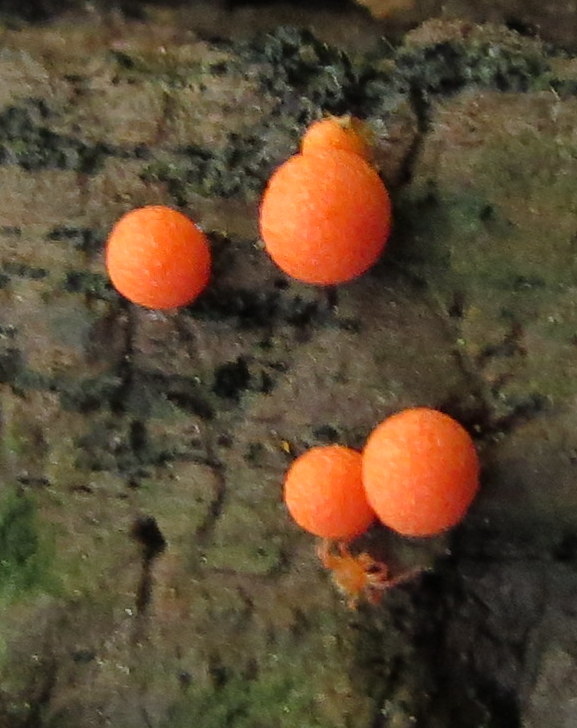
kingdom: Protozoa
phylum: Mycetozoa
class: Myxomycetes
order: Cribrariales
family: Tubiferaceae
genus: Lycogala
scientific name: Lycogala epidendrum
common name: Wolf's milk
